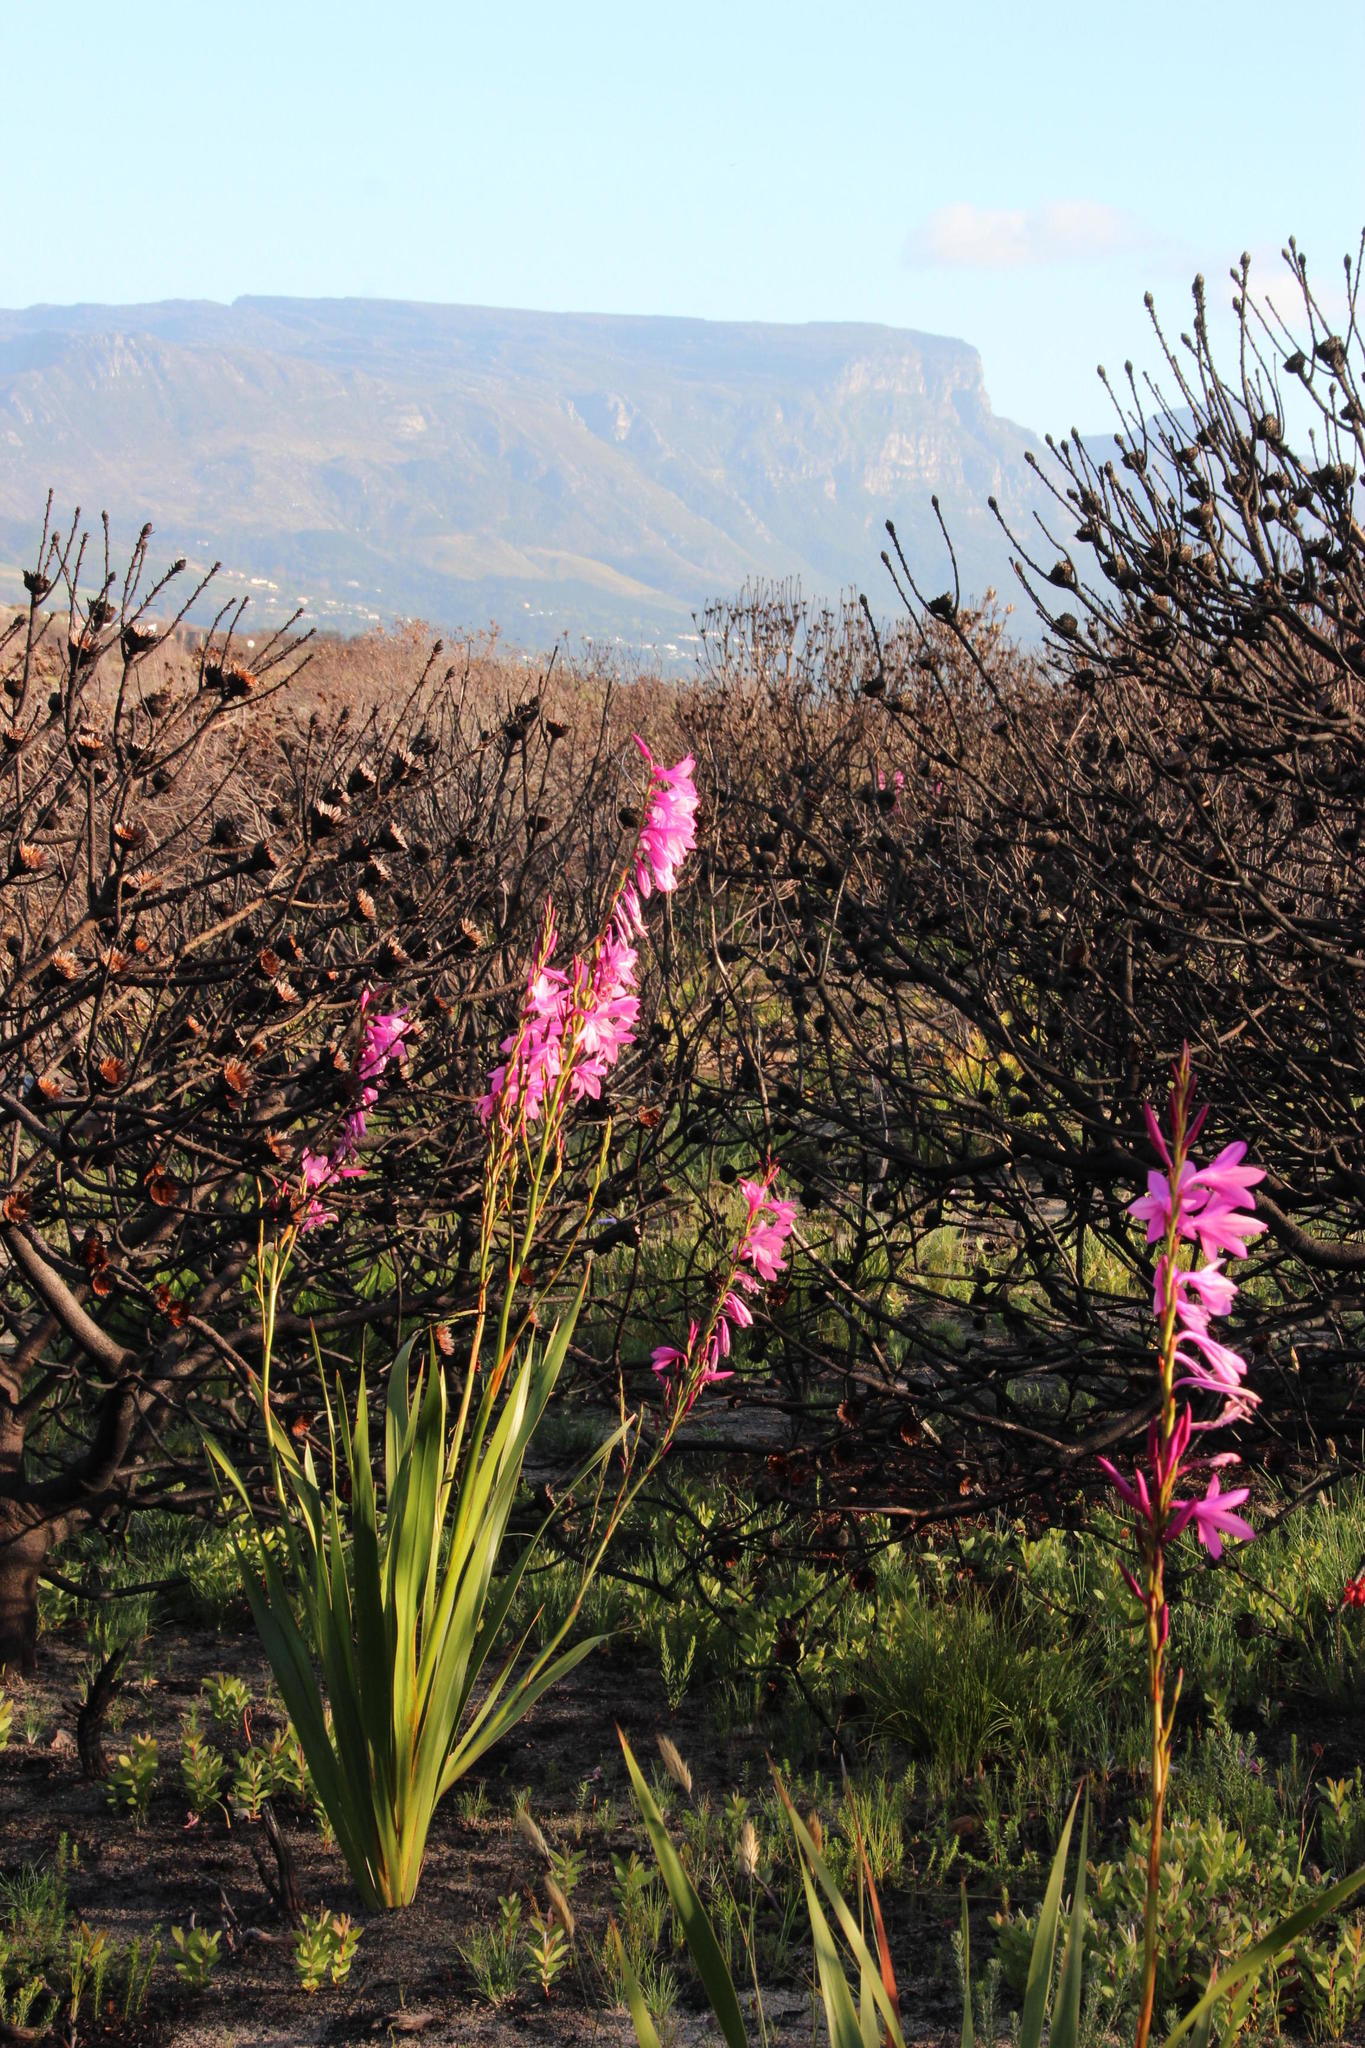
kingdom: Plantae
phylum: Tracheophyta
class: Liliopsida
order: Asparagales
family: Iridaceae
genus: Watsonia
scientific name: Watsonia borbonica
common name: Bugle-lily
